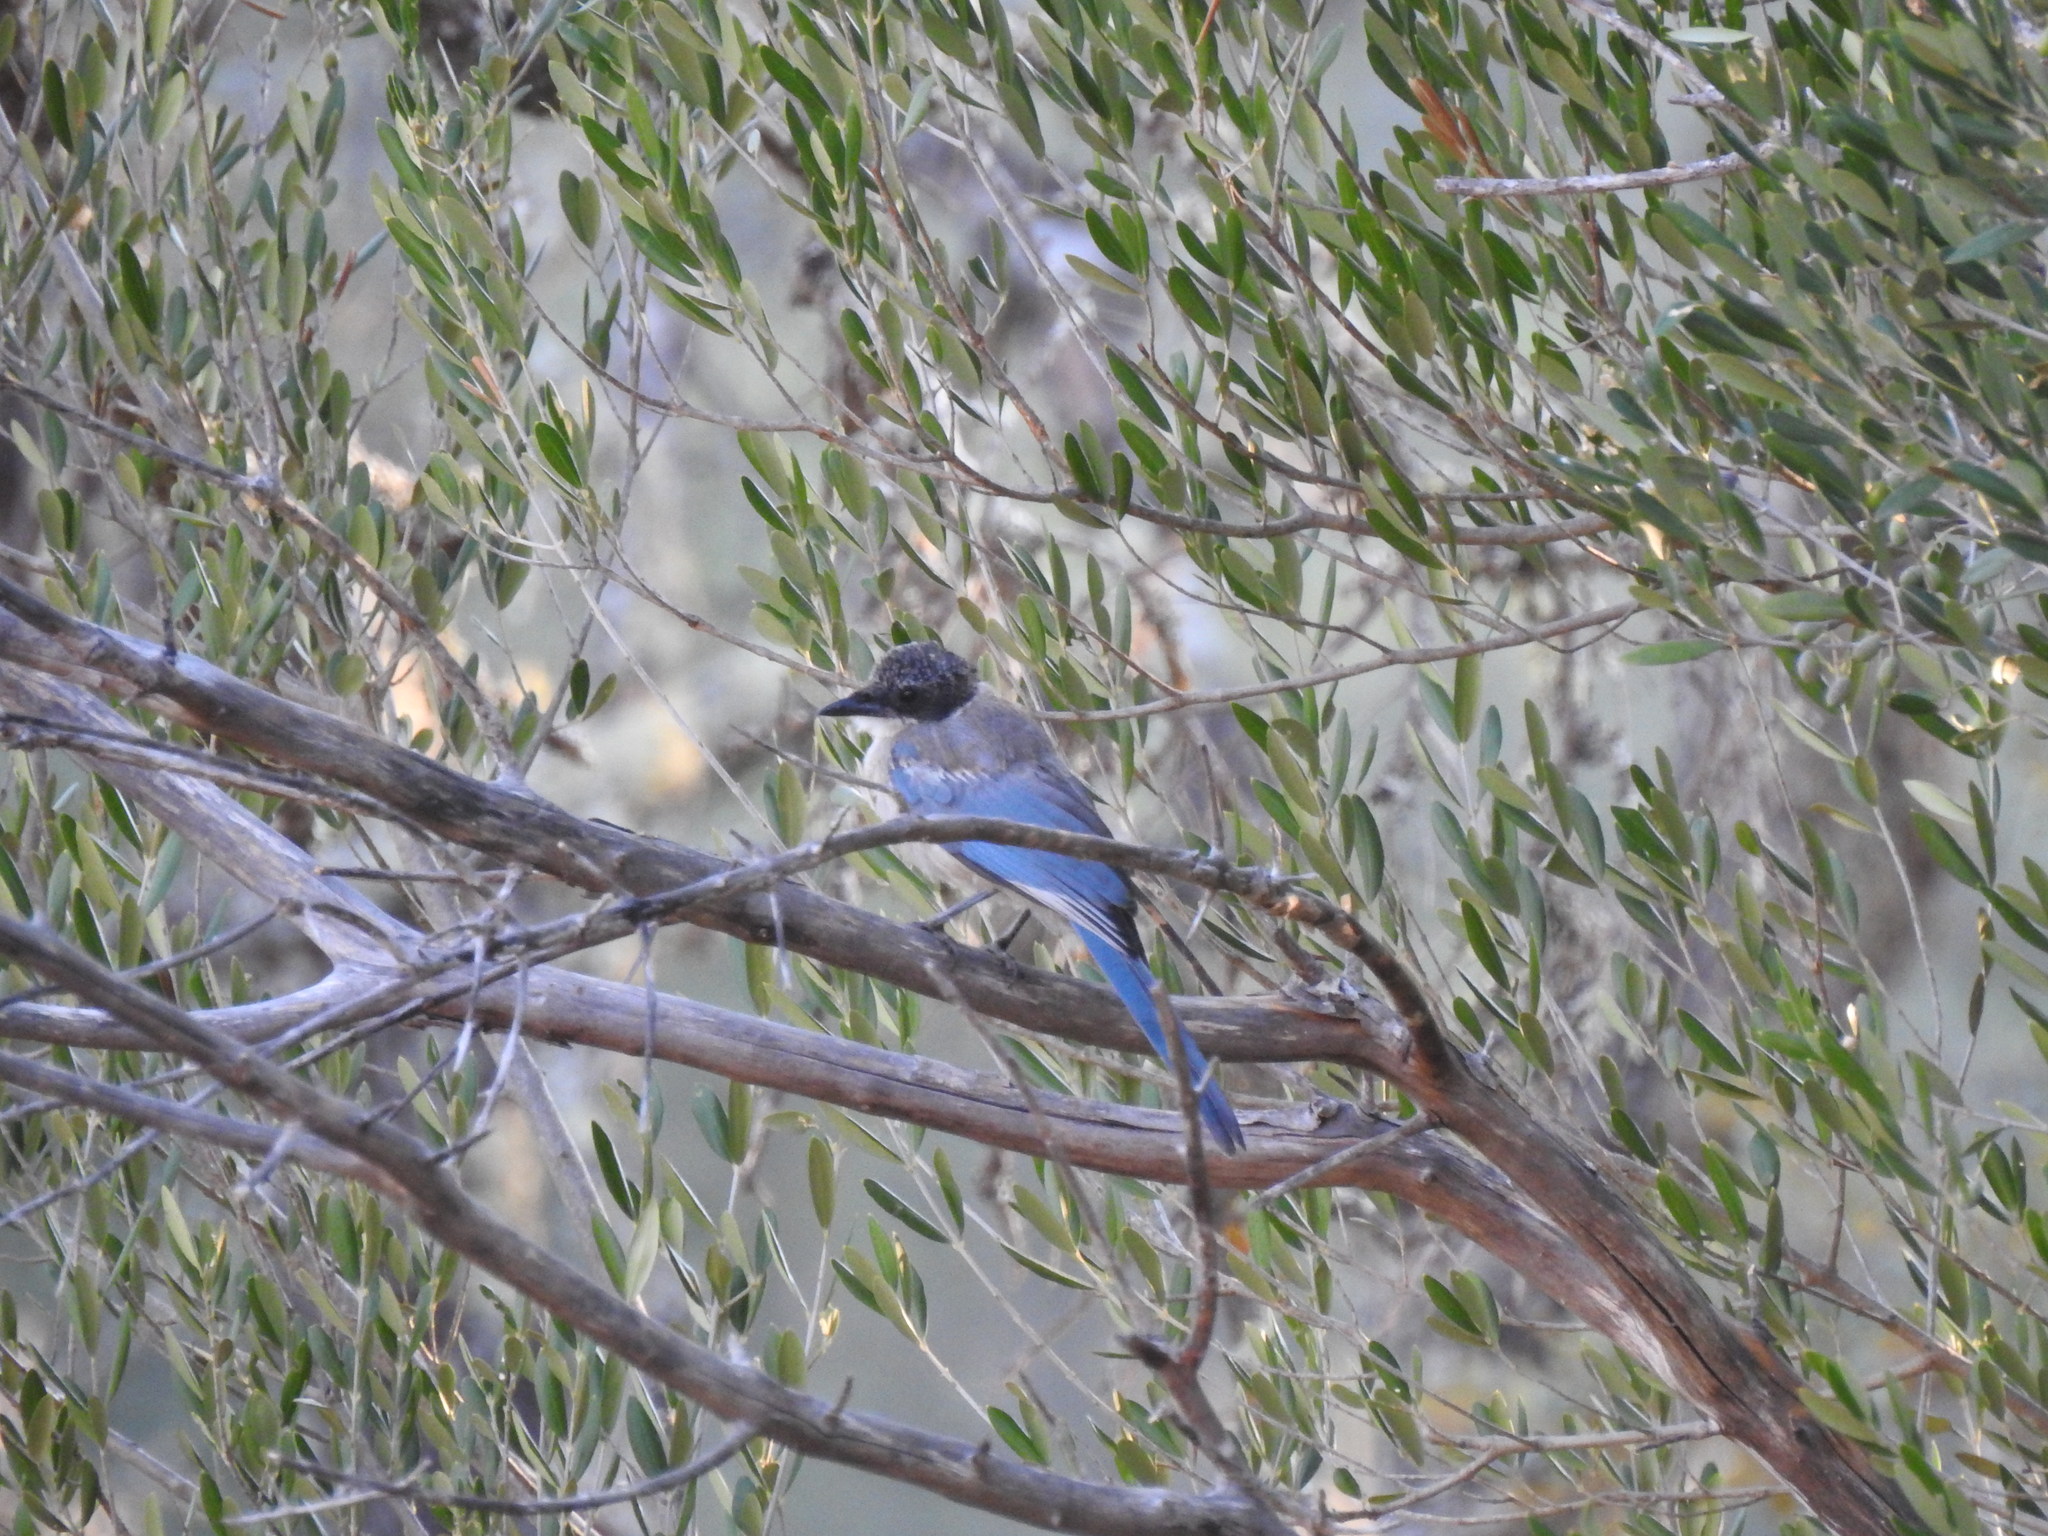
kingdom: Animalia
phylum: Chordata
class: Aves
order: Passeriformes
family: Corvidae
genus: Cyanopica
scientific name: Cyanopica cooki
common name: Iberian magpie
